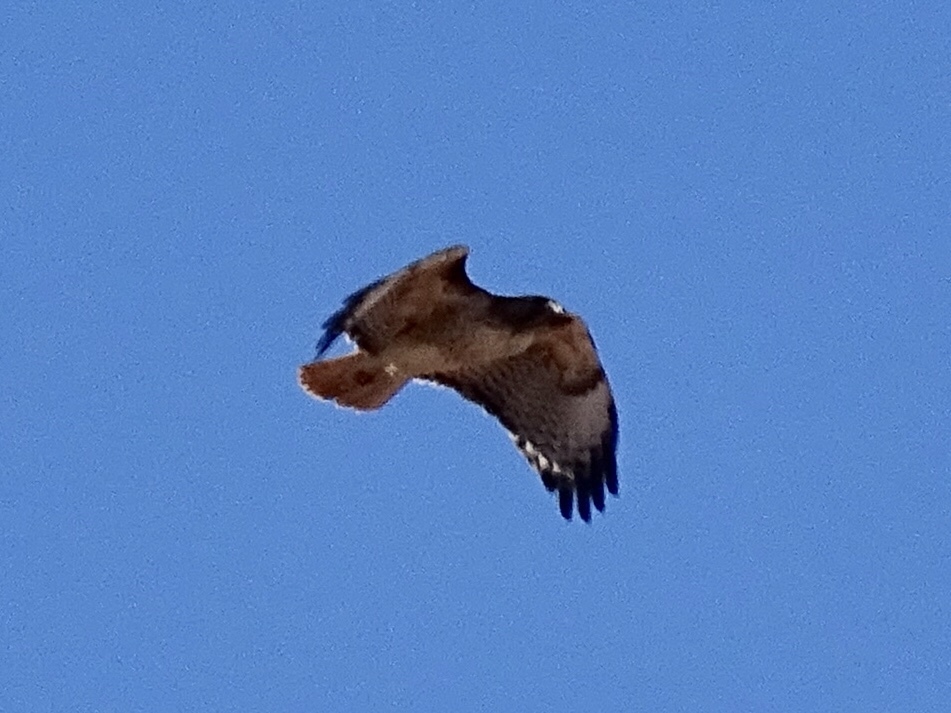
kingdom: Animalia
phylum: Chordata
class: Aves
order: Accipitriformes
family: Accipitridae
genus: Buteo
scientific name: Buteo jamaicensis
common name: Red-tailed hawk
